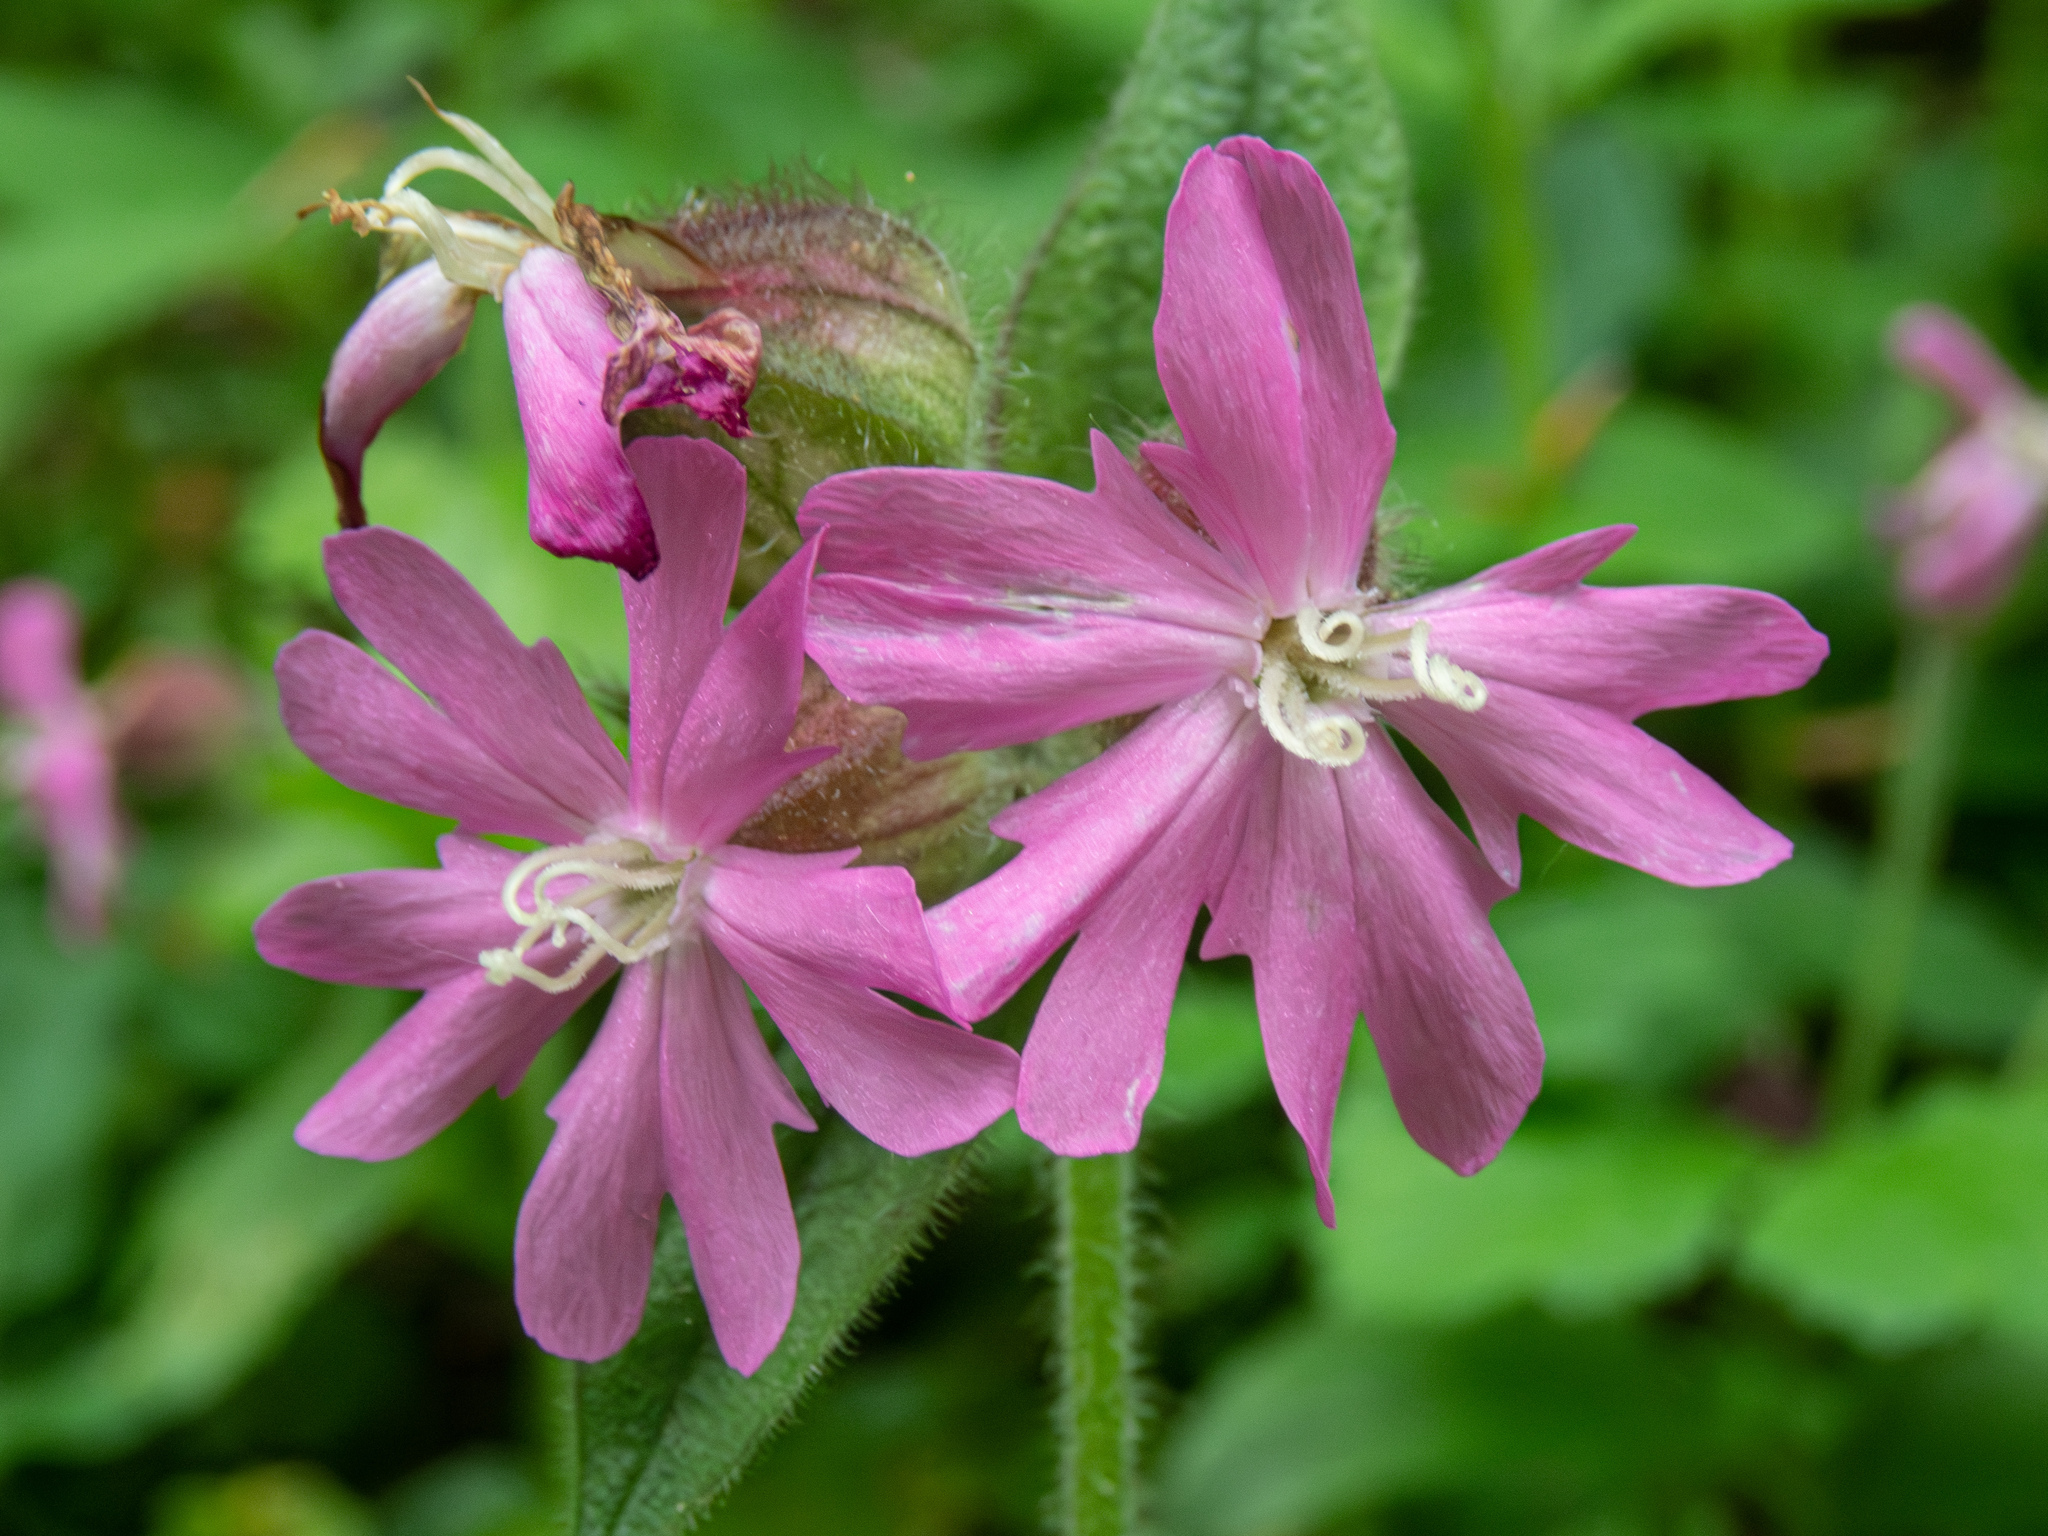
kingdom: Plantae
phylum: Tracheophyta
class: Magnoliopsida
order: Caryophyllales
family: Caryophyllaceae
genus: Silene
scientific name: Silene dioica
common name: Red campion
